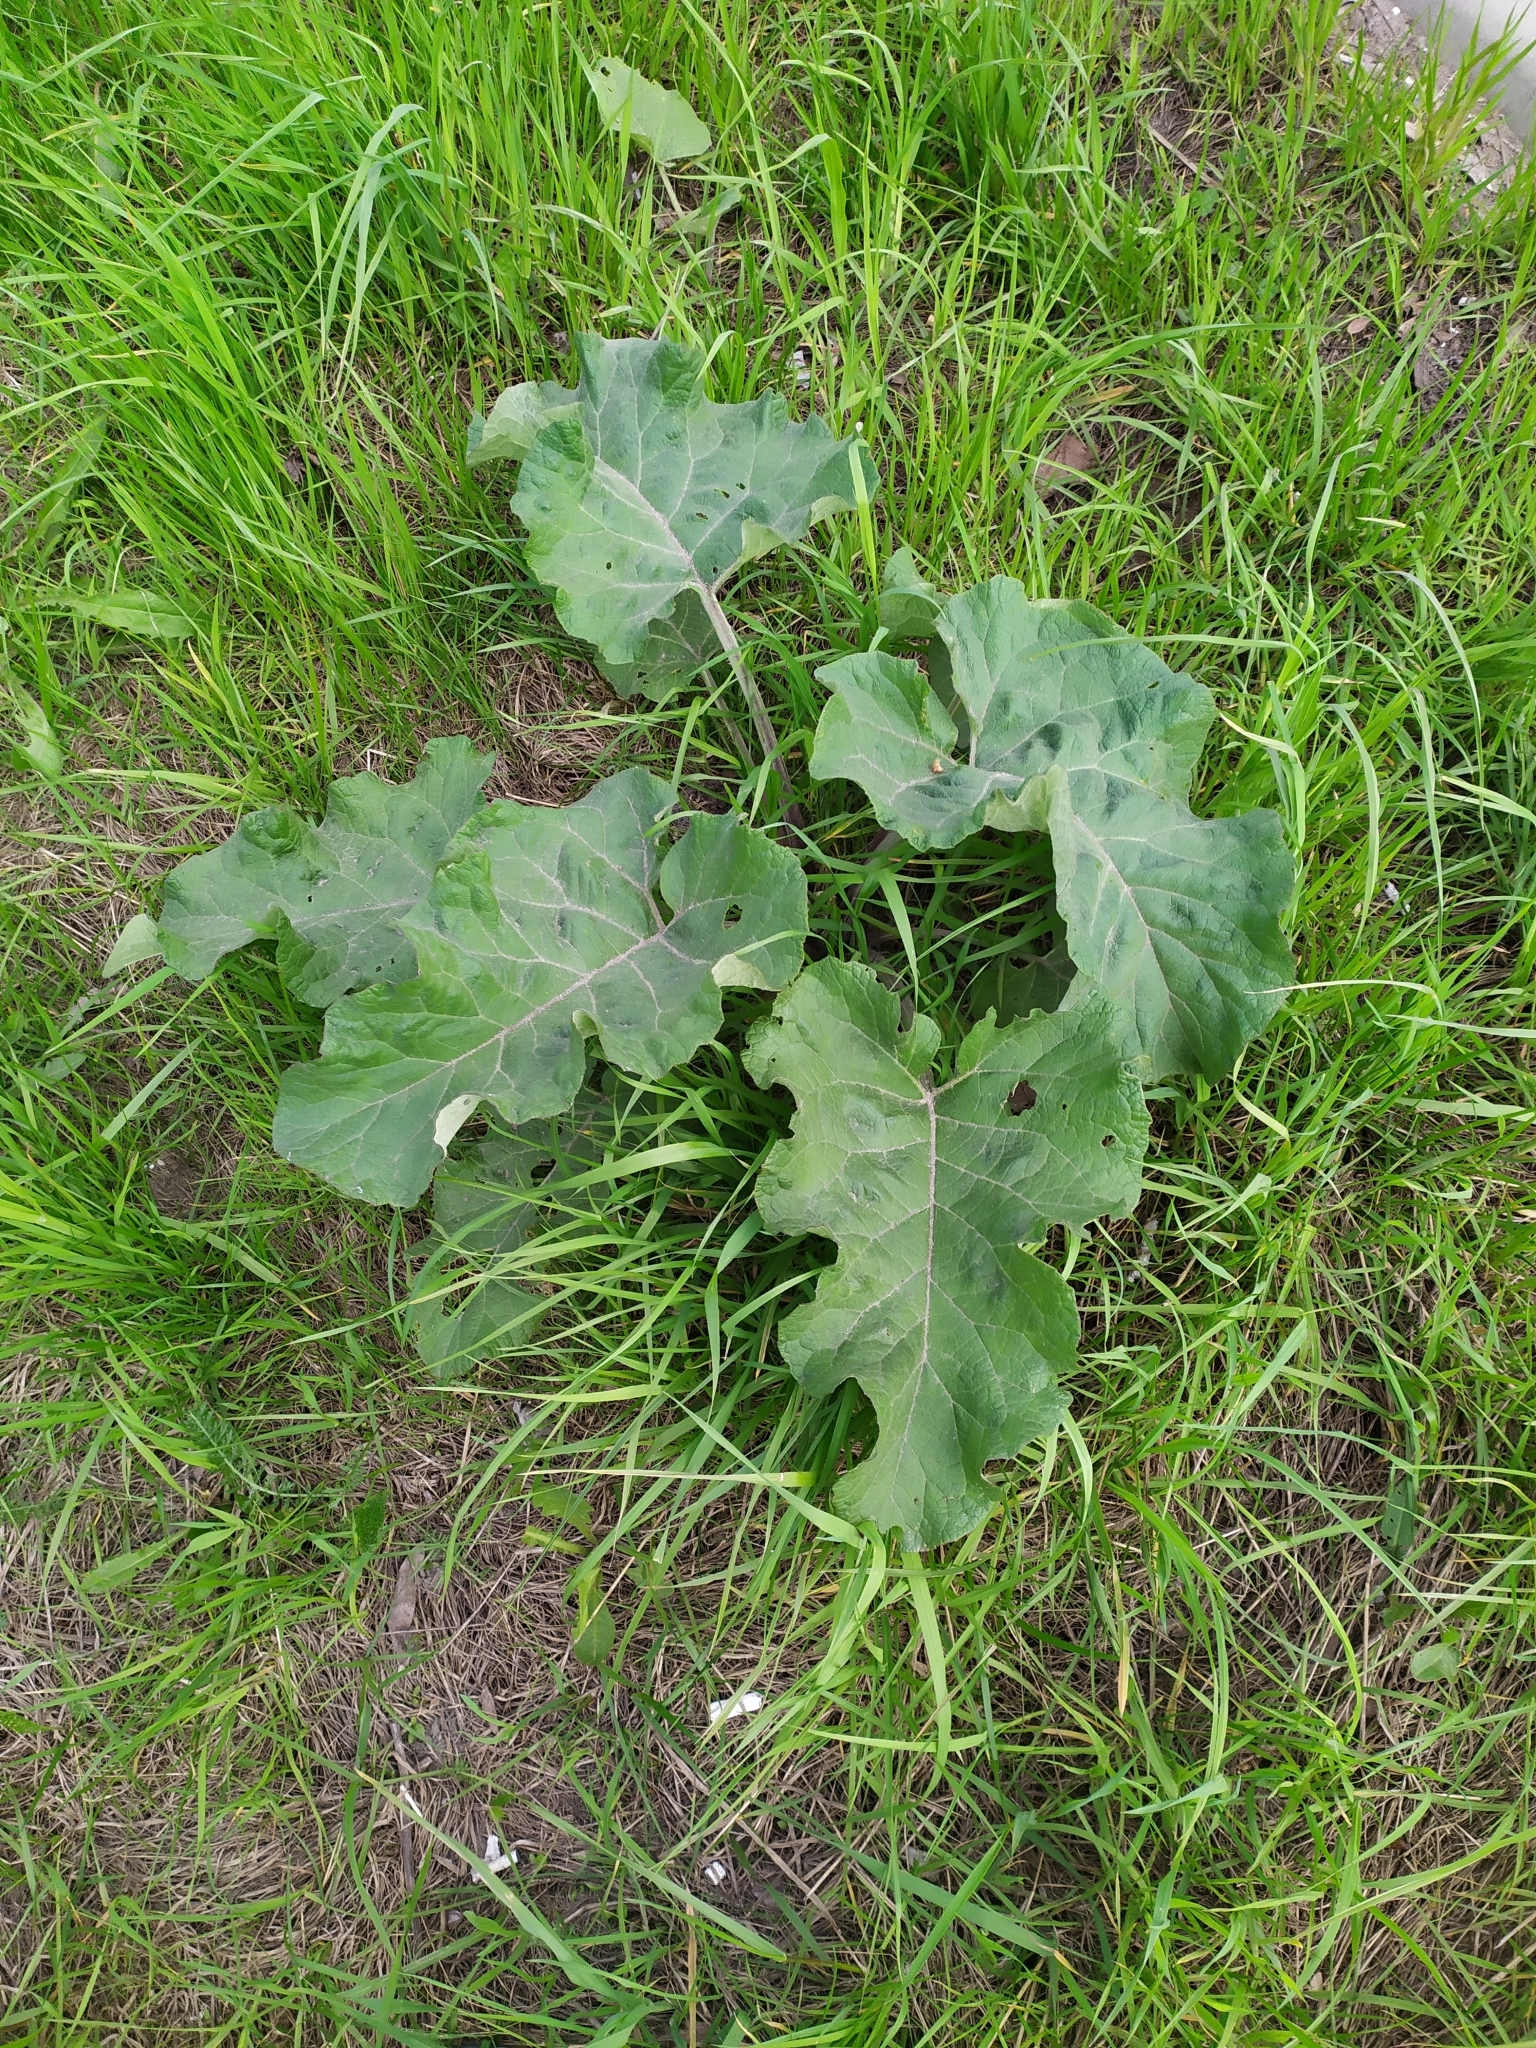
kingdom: Plantae
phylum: Tracheophyta
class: Magnoliopsida
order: Asterales
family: Asteraceae
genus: Arctium
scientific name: Arctium
